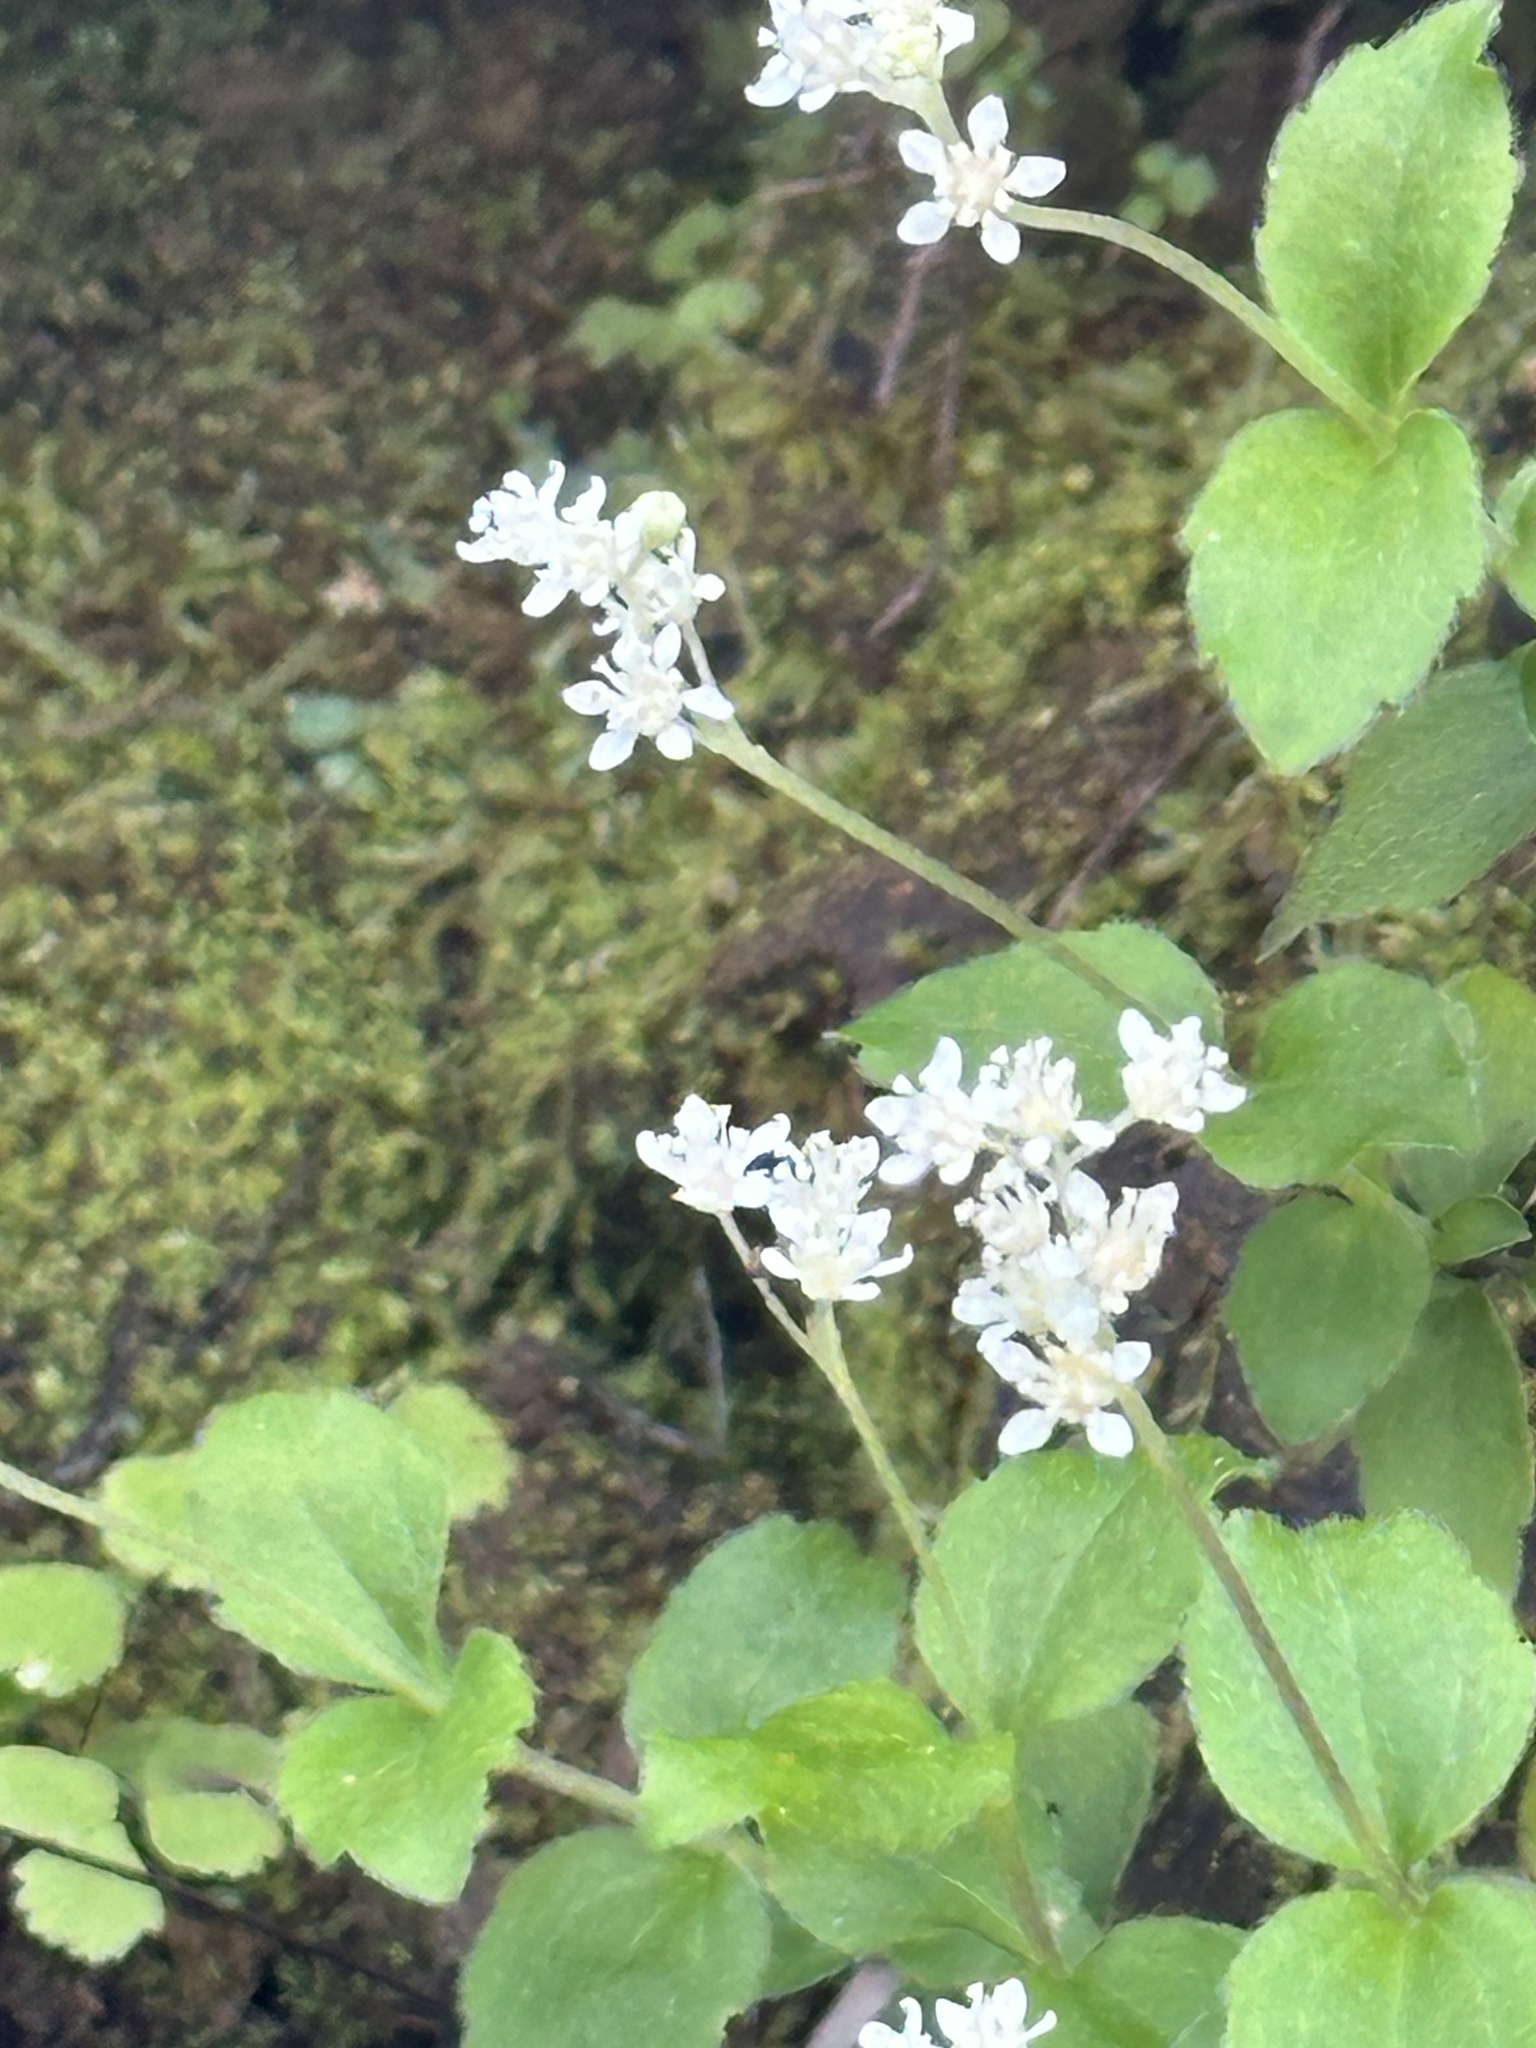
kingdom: Plantae
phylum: Tracheophyta
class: Magnoliopsida
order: Cornales
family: Hydrangeaceae
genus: Whipplea
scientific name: Whipplea modesta
